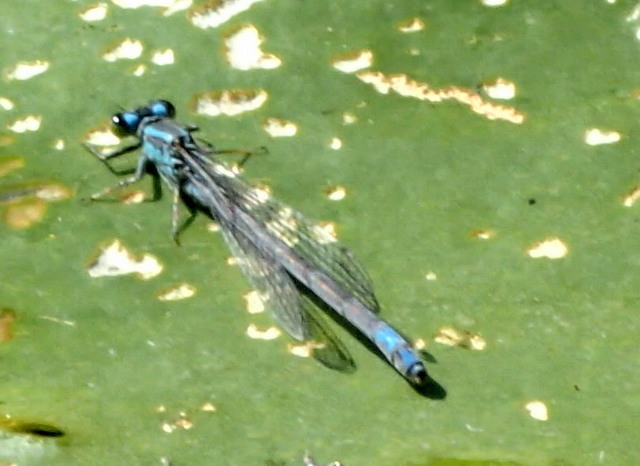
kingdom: Animalia
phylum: Arthropoda
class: Insecta
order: Odonata
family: Coenagrionidae
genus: Ischnura
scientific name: Ischnura kellicotti
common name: Lilypad forktail
